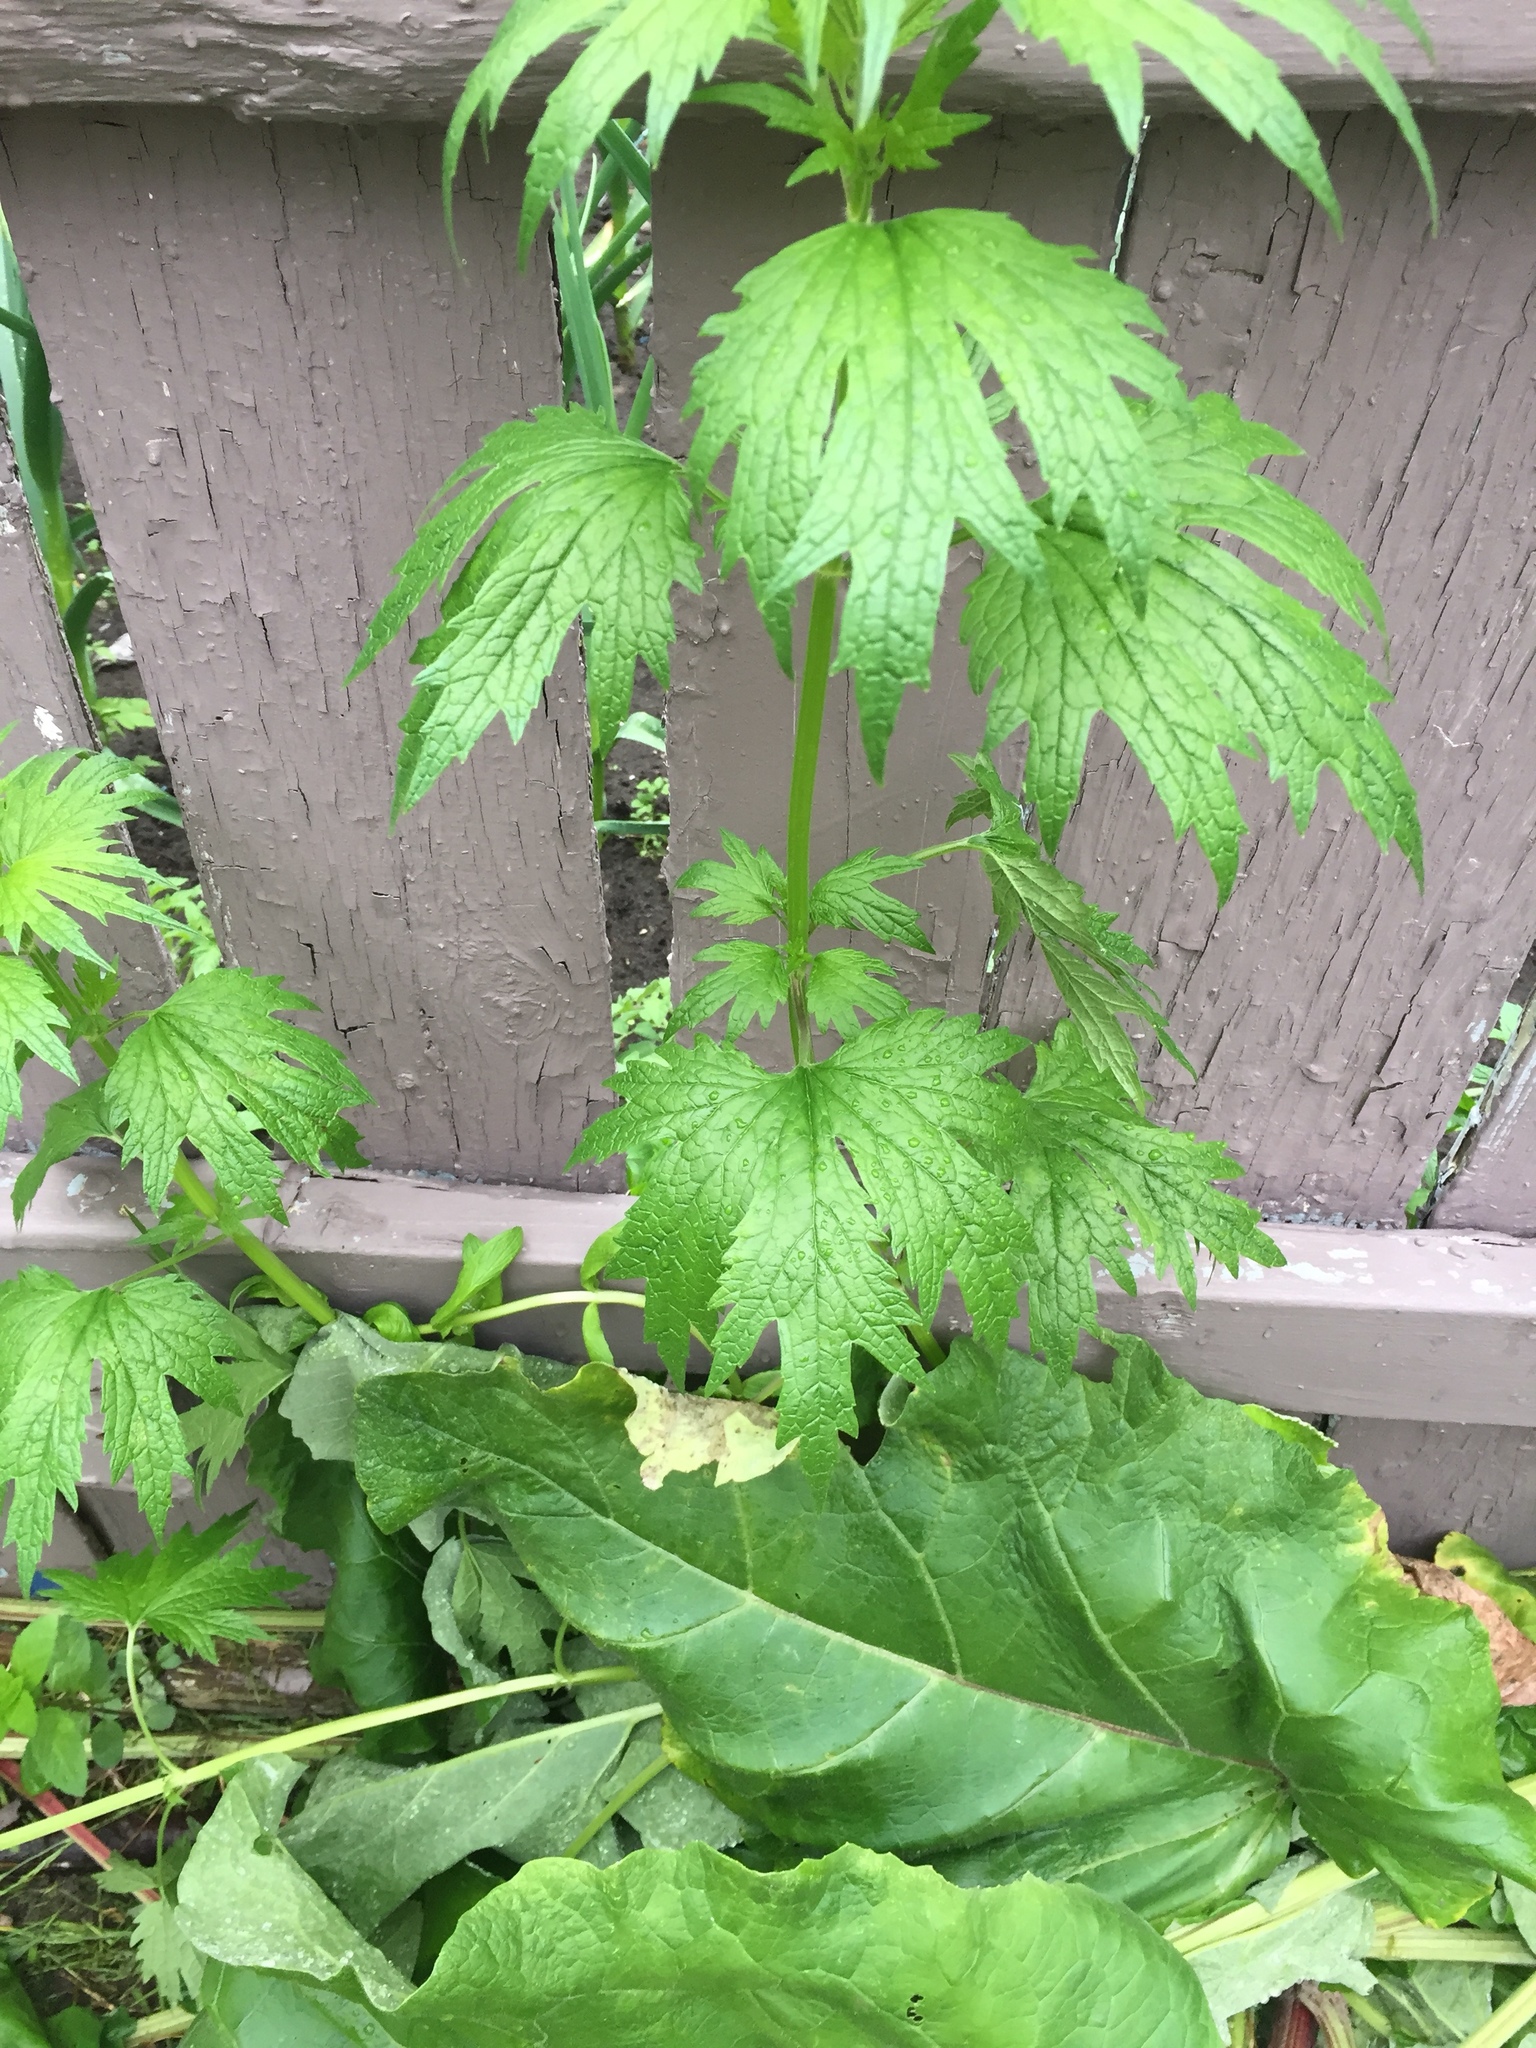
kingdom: Plantae
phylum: Tracheophyta
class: Magnoliopsida
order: Lamiales
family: Lamiaceae
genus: Leonurus
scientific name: Leonurus cardiaca
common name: Motherwort
